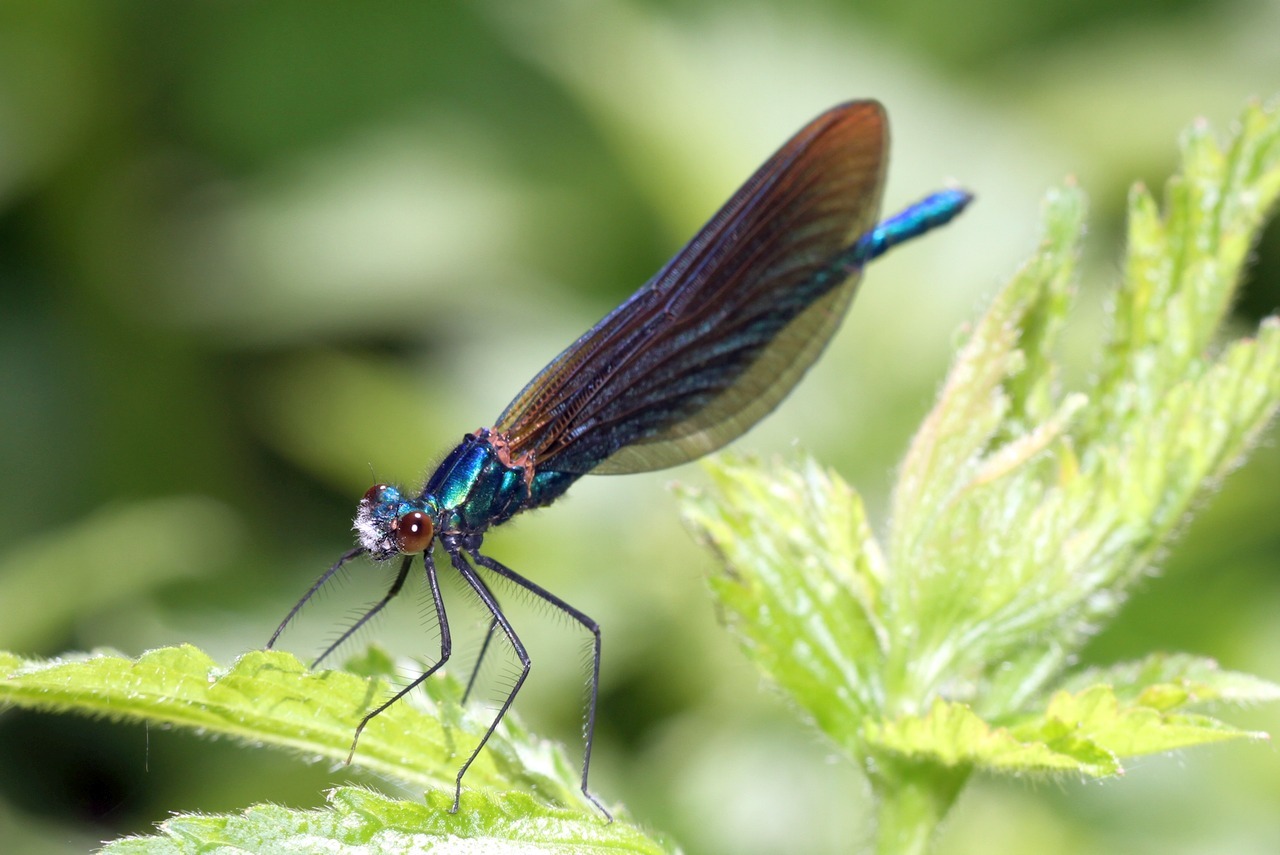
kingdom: Animalia
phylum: Arthropoda
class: Insecta
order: Odonata
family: Calopterygidae
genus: Calopteryx
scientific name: Calopteryx virgo
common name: Beautiful demoiselle
